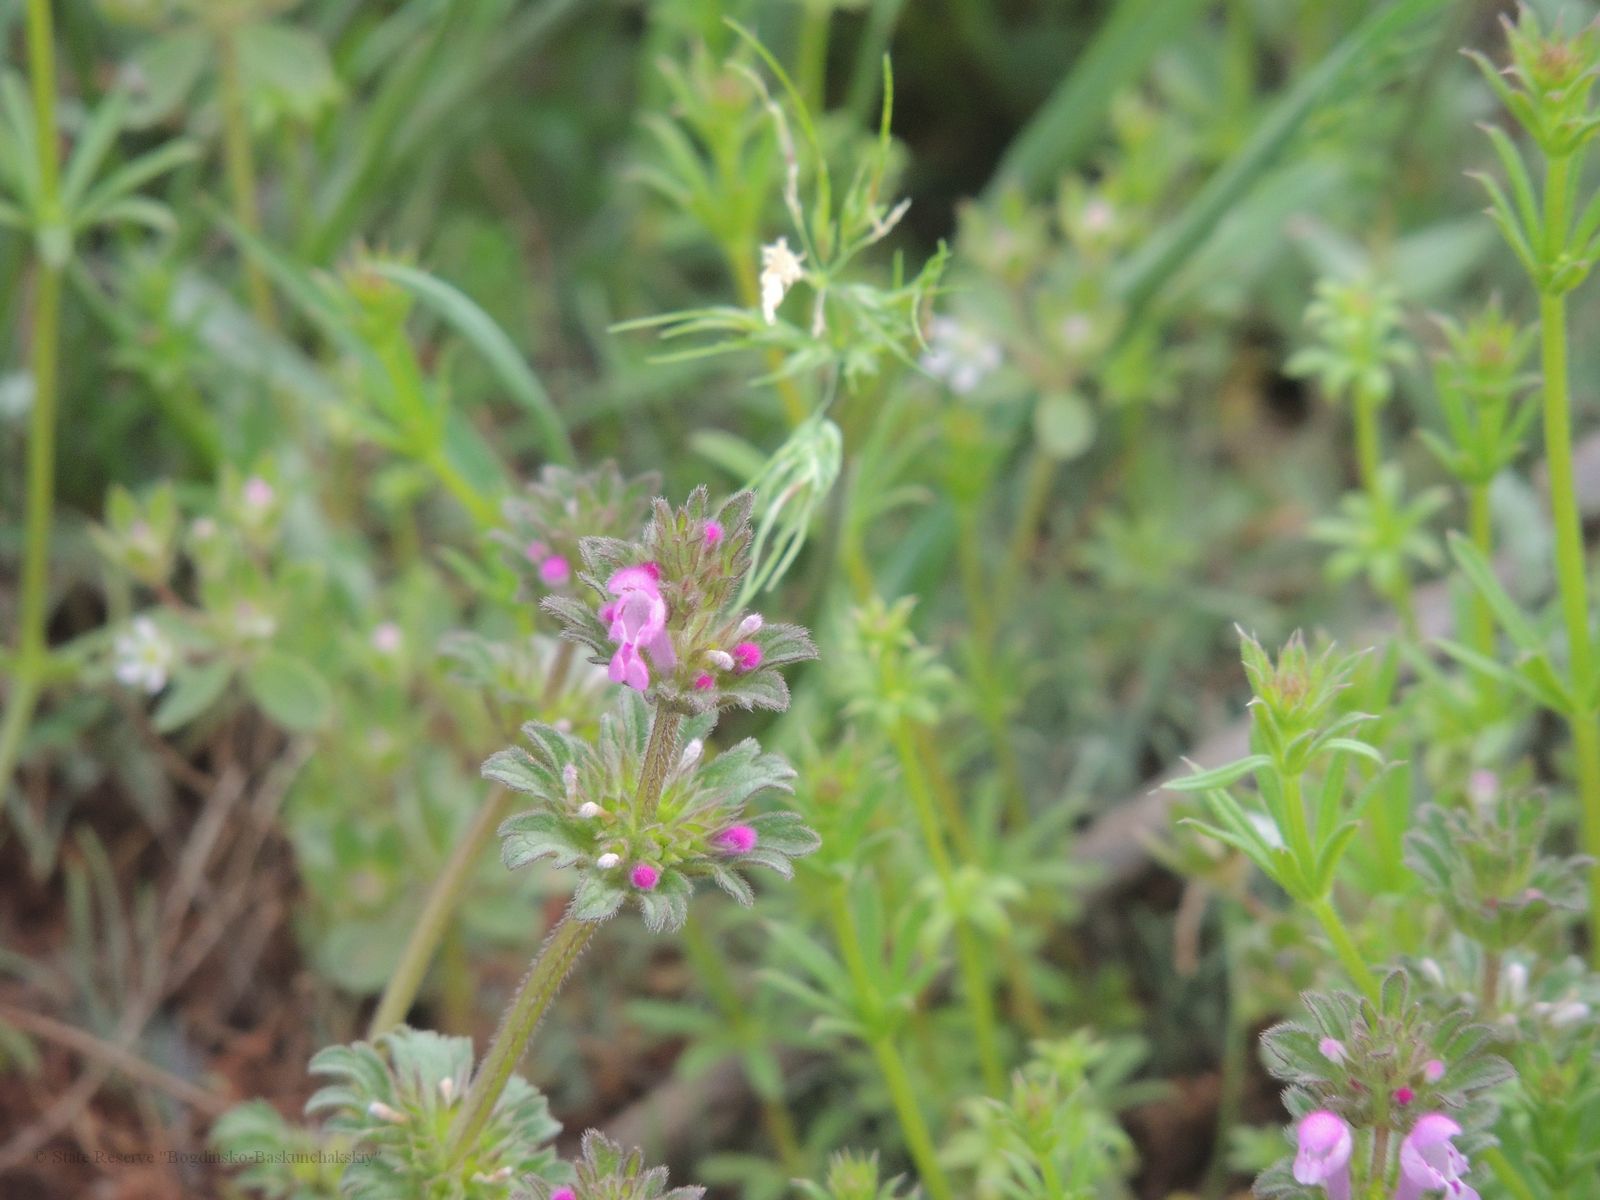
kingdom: Plantae
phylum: Tracheophyta
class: Magnoliopsida
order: Lamiales
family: Lamiaceae
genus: Lamium
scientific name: Lamium amplexicaule
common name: Henbit dead-nettle
